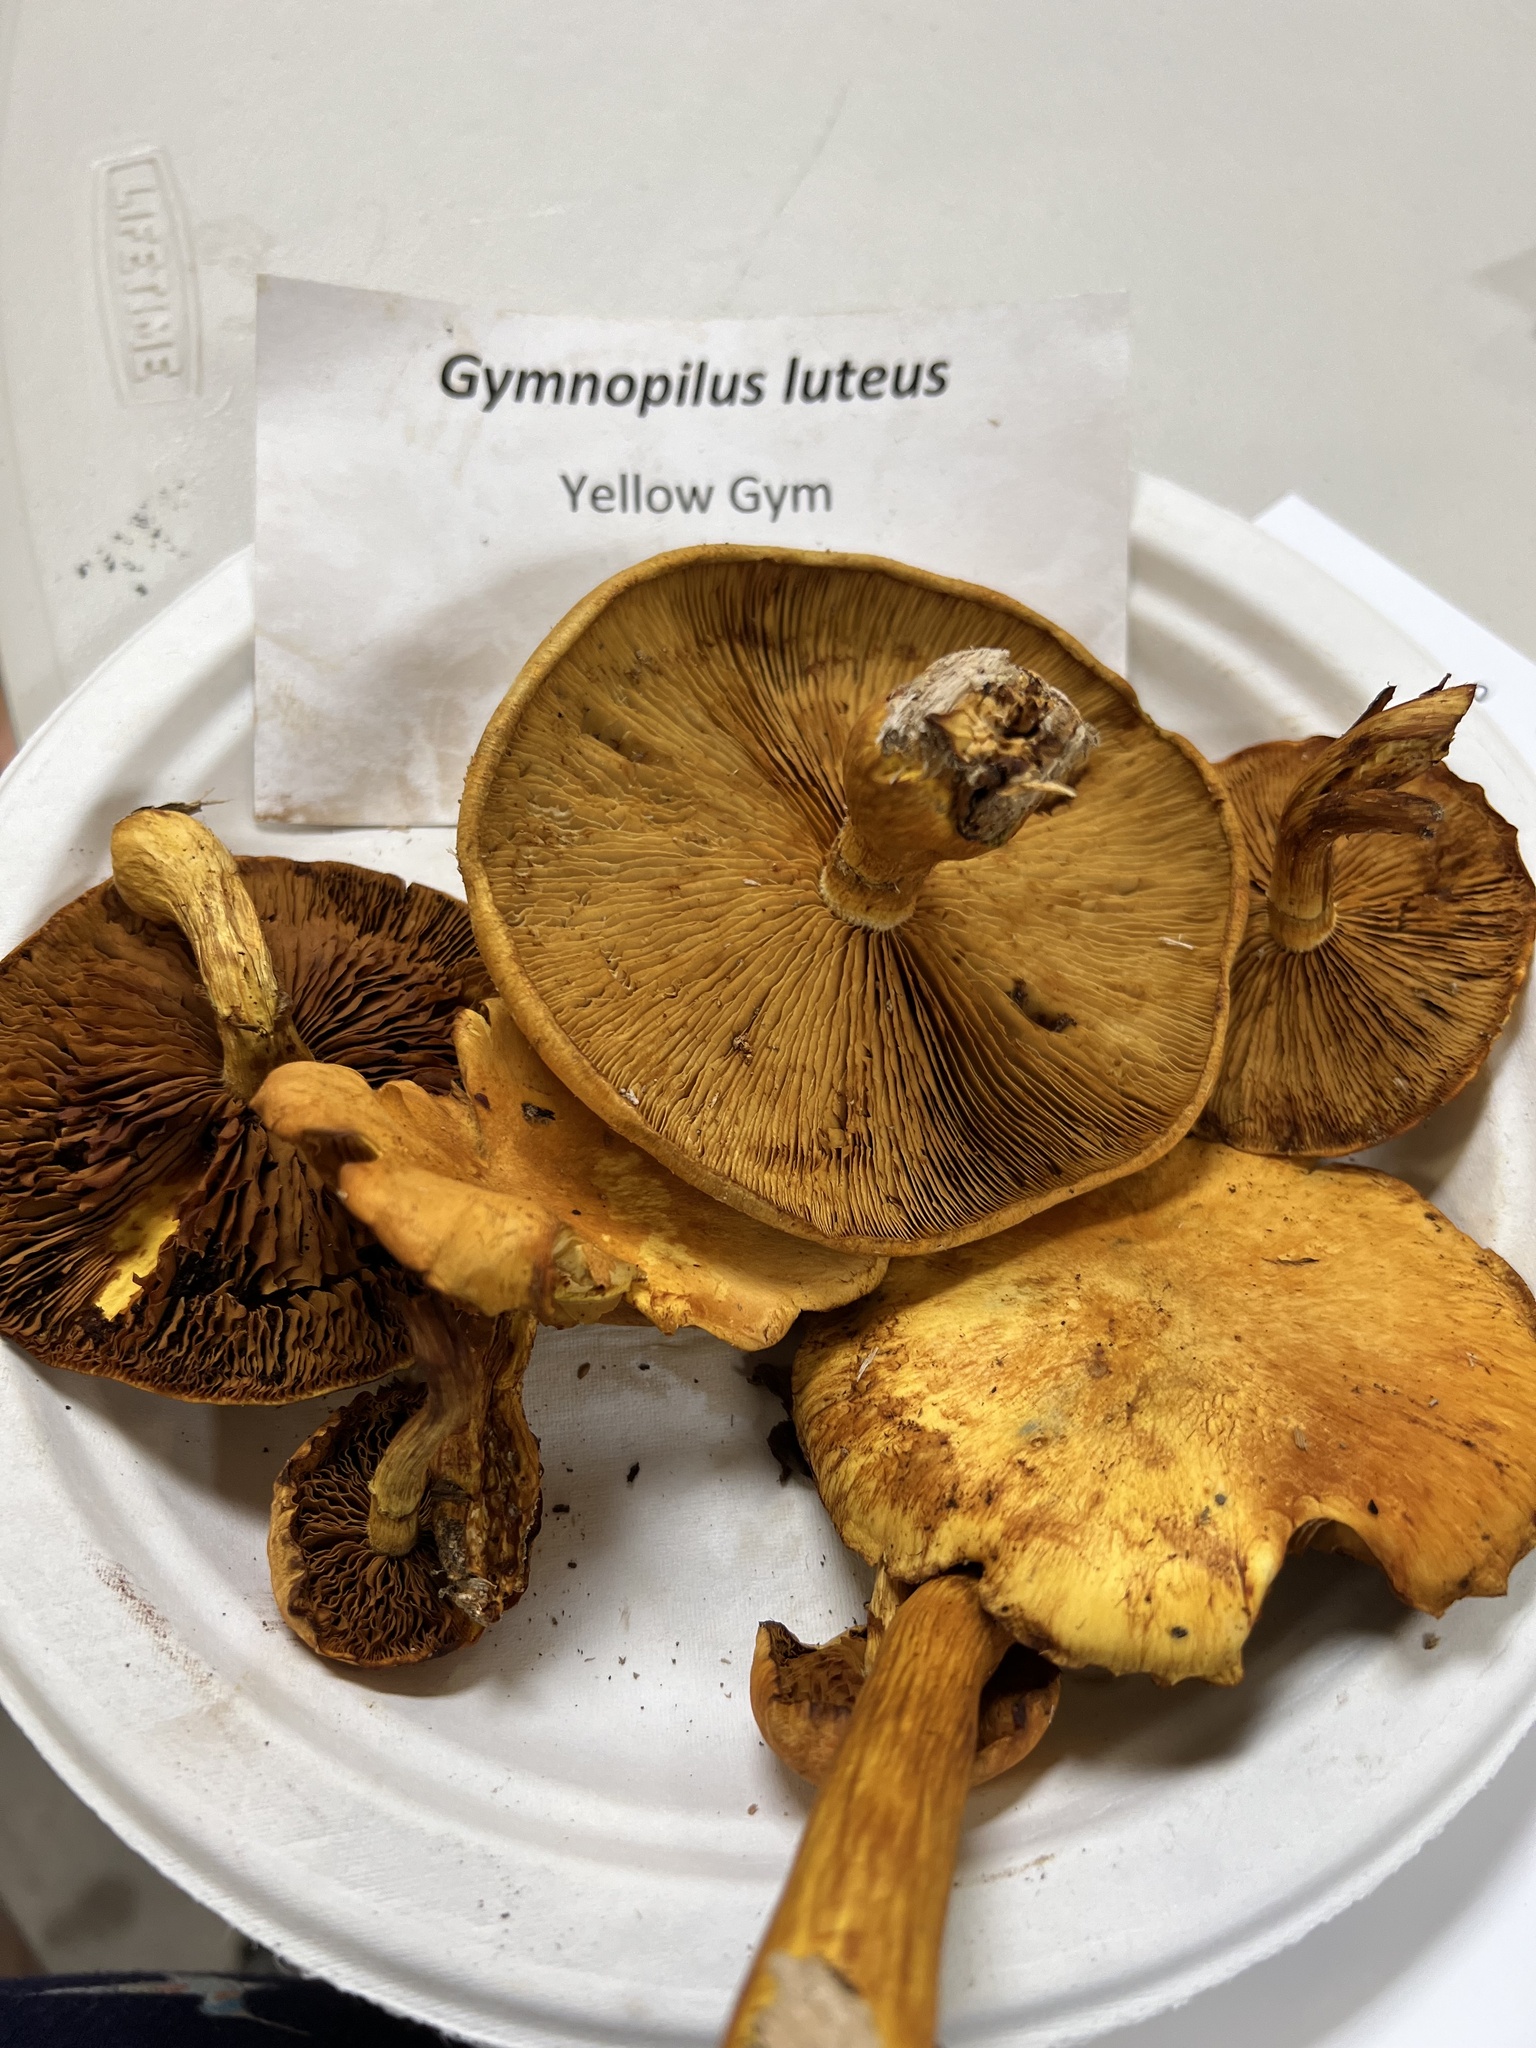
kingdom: Fungi
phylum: Basidiomycota
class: Agaricomycetes
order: Agaricales
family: Hymenogastraceae
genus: Gymnopilus
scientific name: Gymnopilus luteus
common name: Yellow gymnopilus
